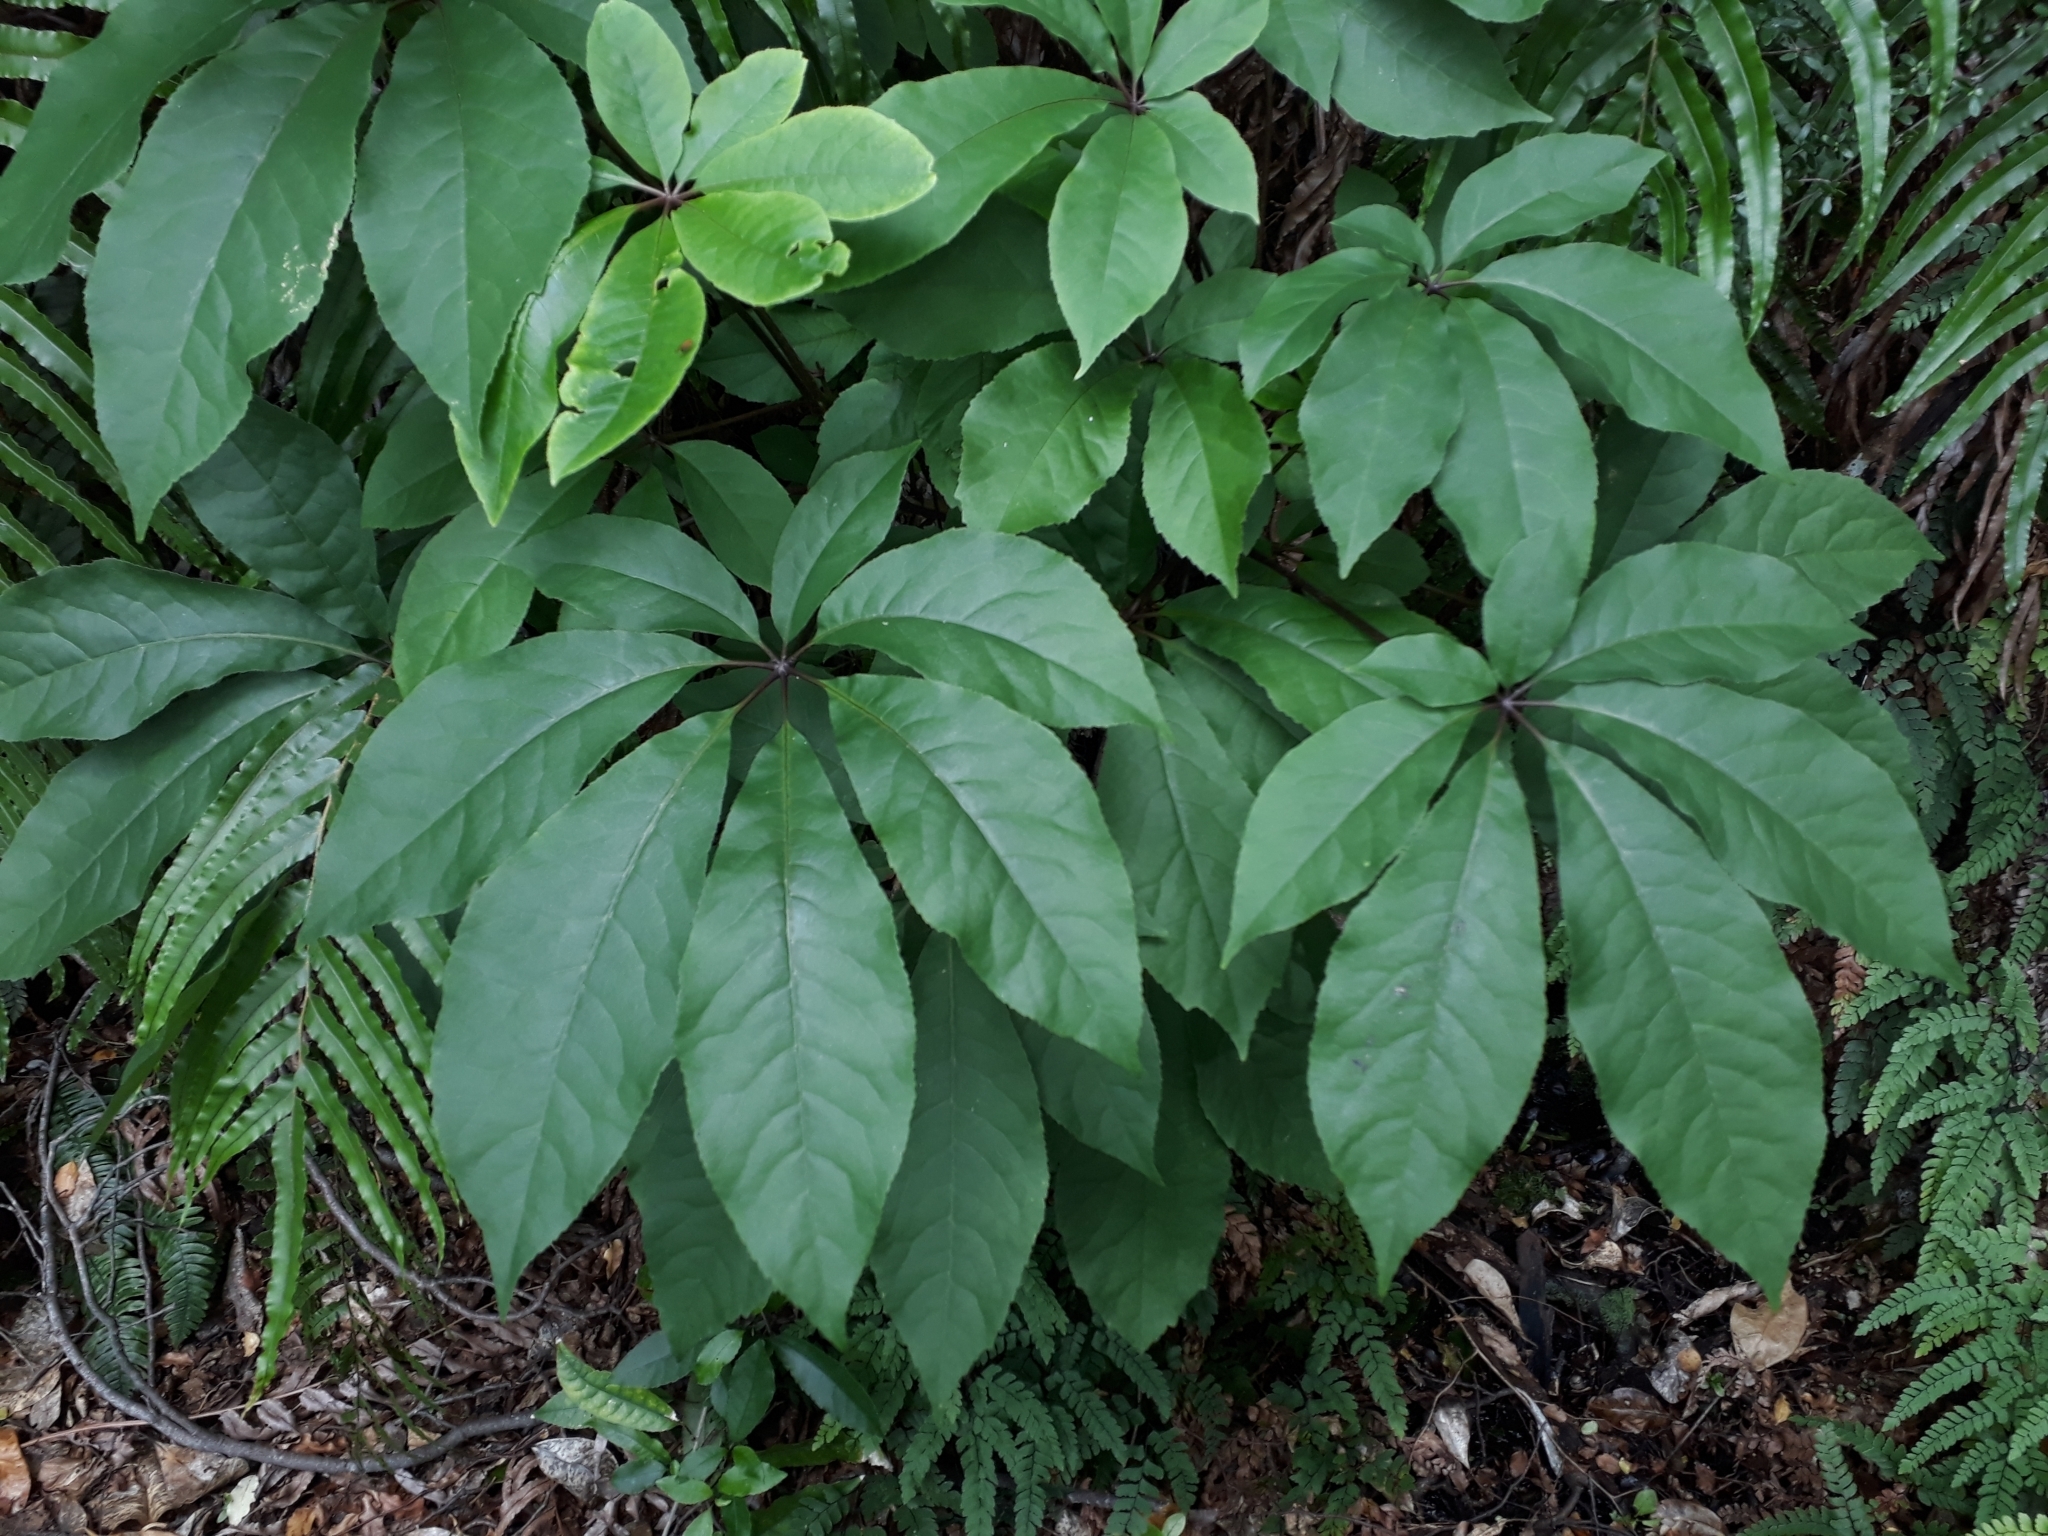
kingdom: Plantae
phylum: Tracheophyta
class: Magnoliopsida
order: Apiales
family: Araliaceae
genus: Schefflera
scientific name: Schefflera digitata
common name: Pate
